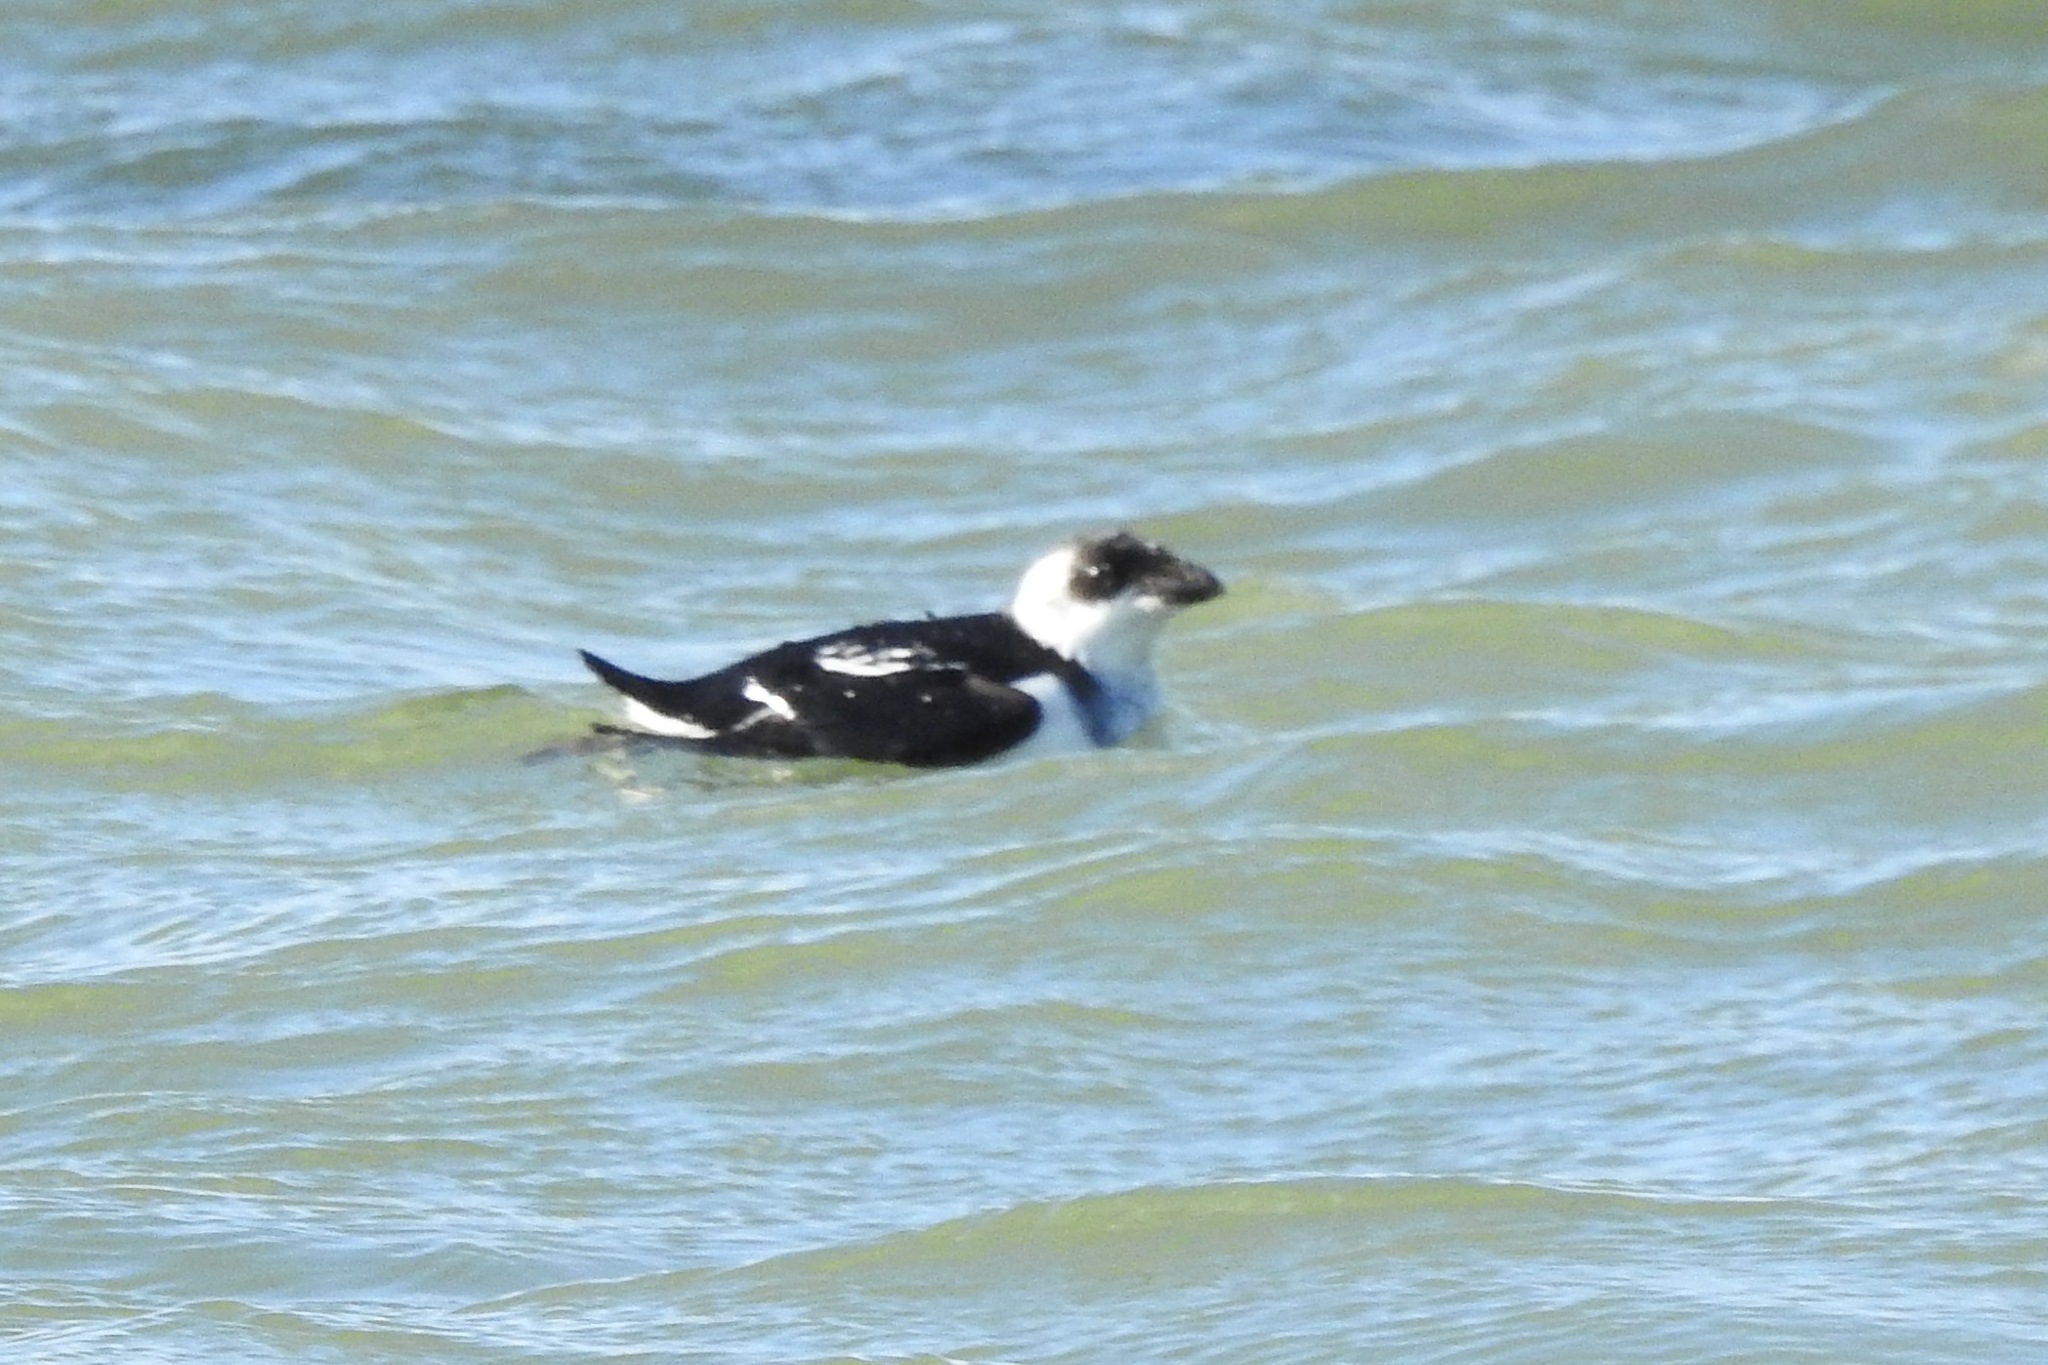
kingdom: Animalia
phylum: Chordata
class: Aves
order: Charadriiformes
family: Alcidae
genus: Alle
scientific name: Alle alle
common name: Little auk
